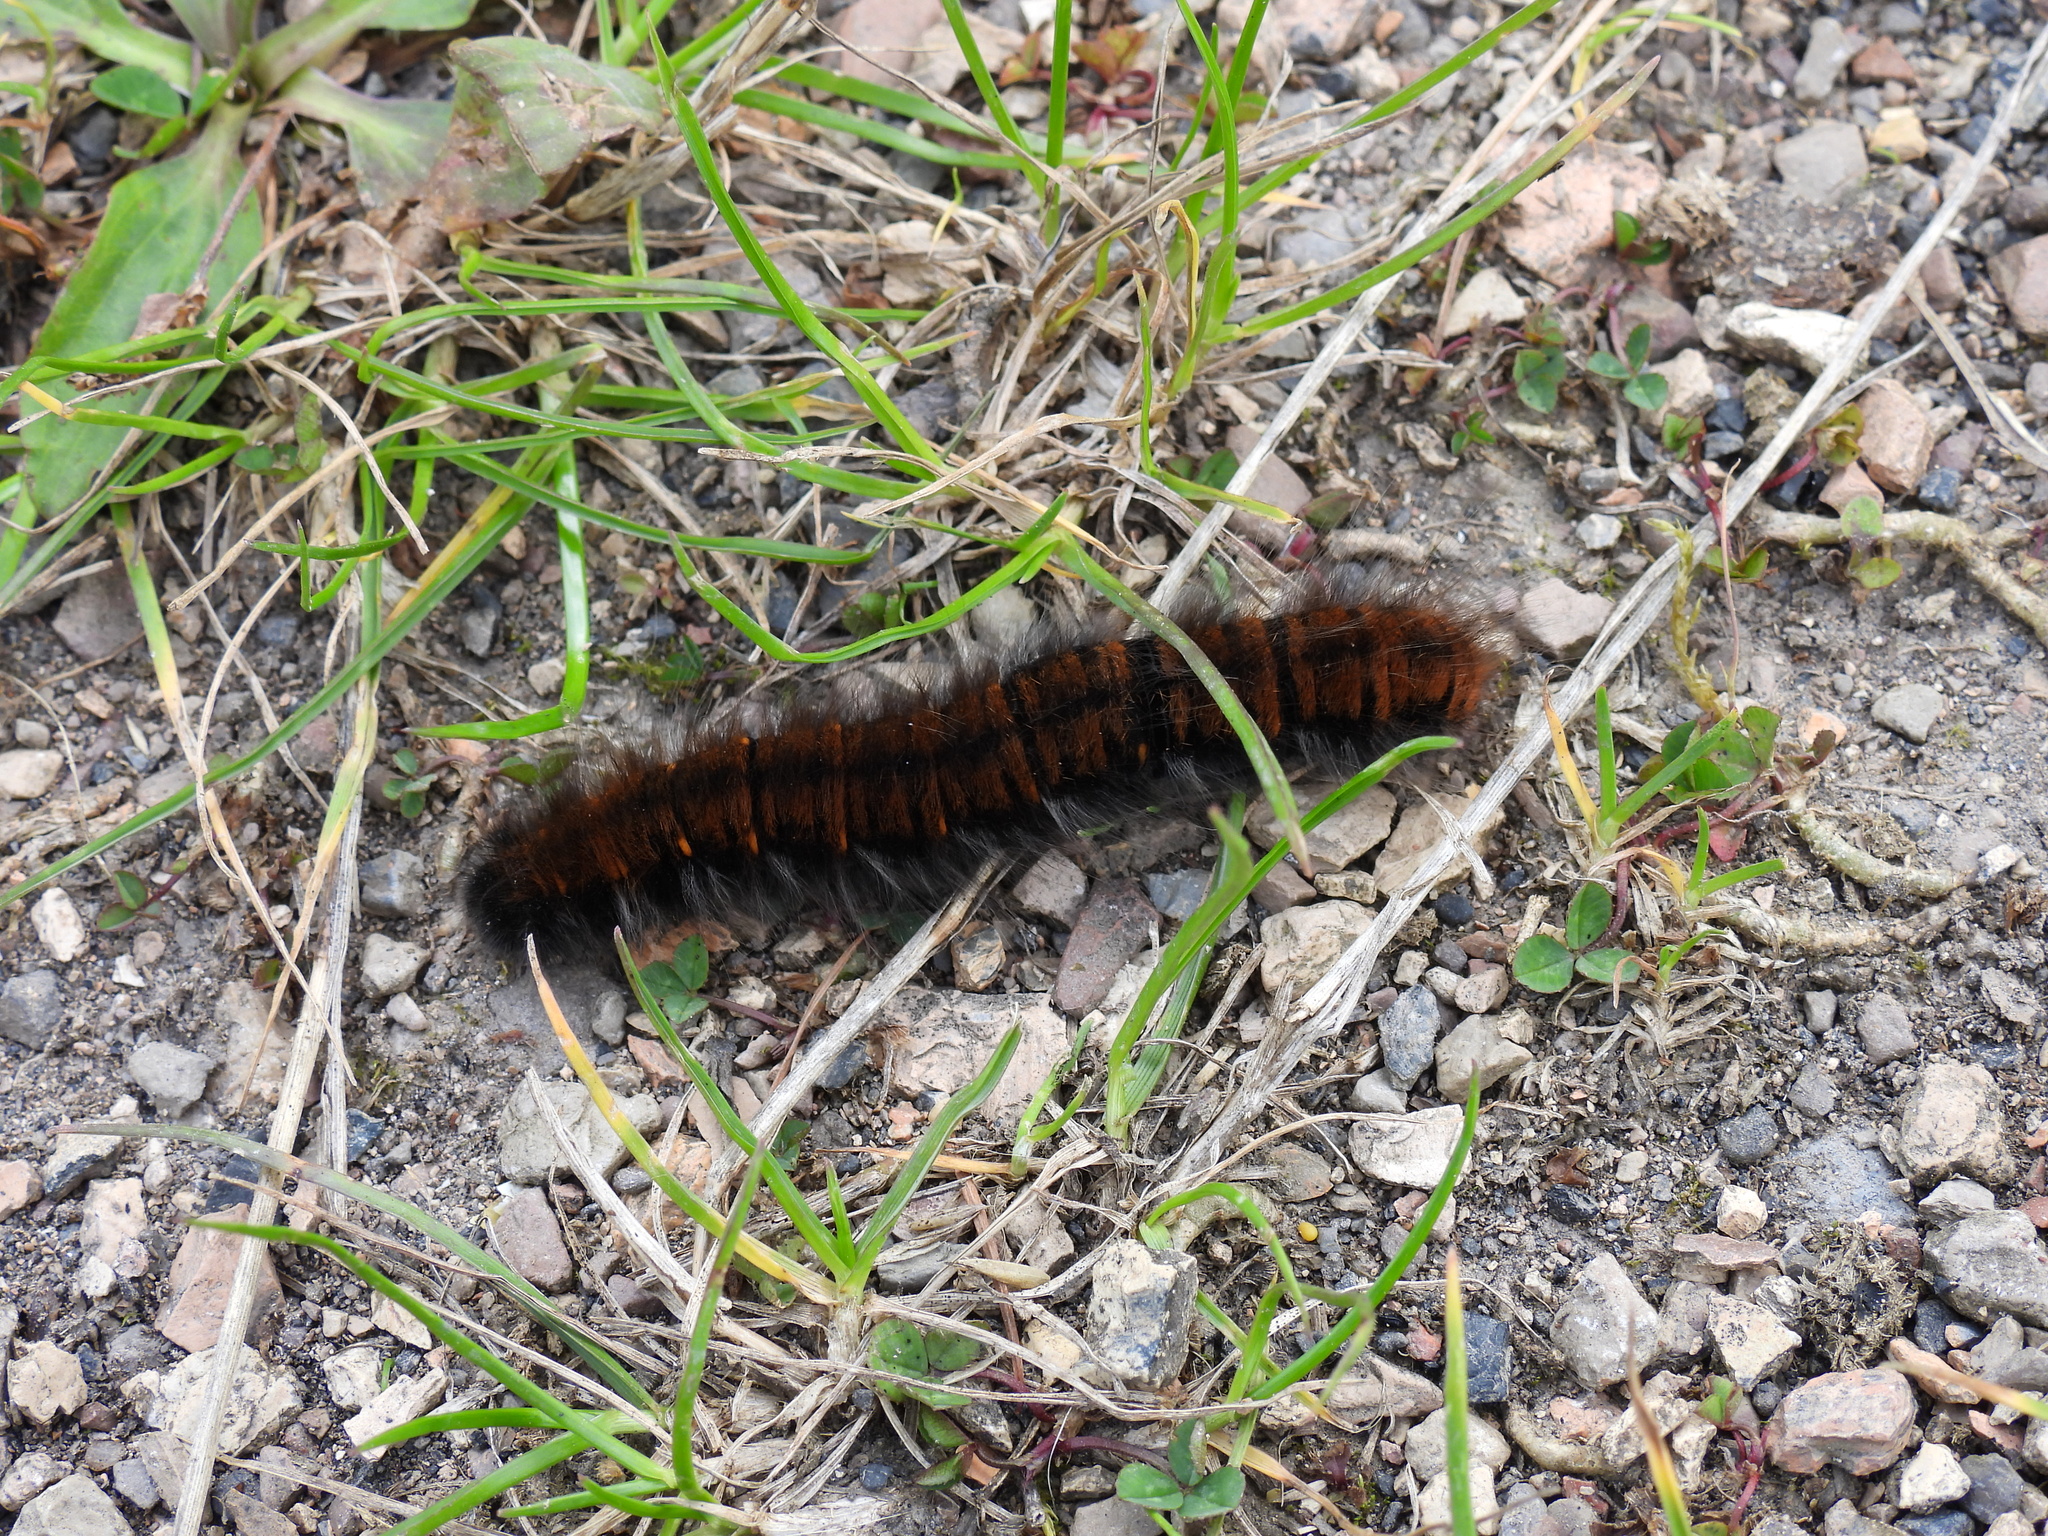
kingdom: Animalia
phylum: Arthropoda
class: Insecta
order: Lepidoptera
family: Lasiocampidae
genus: Macrothylacia
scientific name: Macrothylacia rubi
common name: Fox moth
